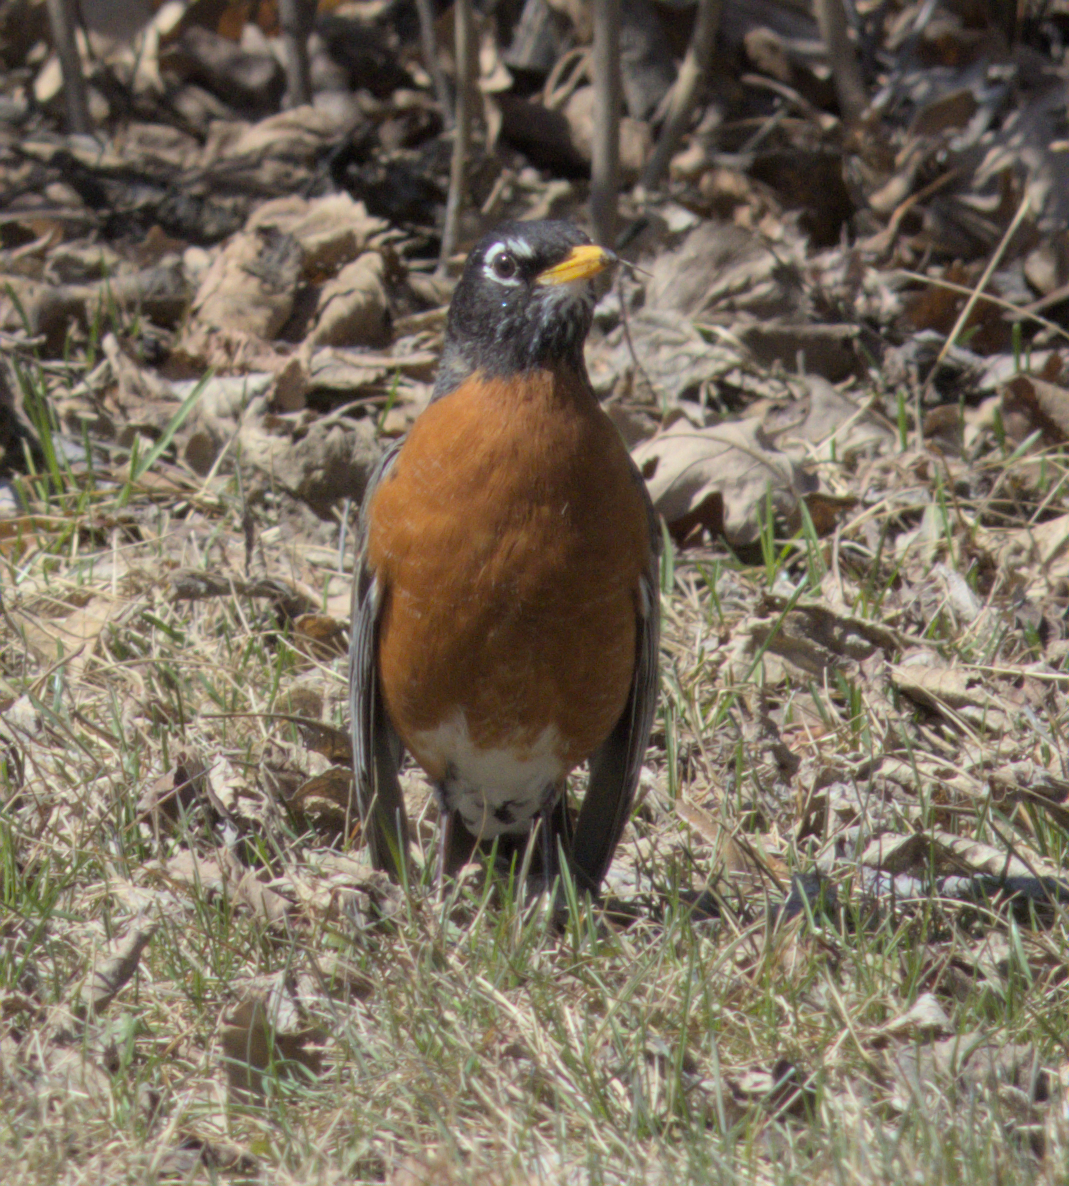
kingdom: Animalia
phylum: Chordata
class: Aves
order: Passeriformes
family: Turdidae
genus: Turdus
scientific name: Turdus migratorius
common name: American robin
